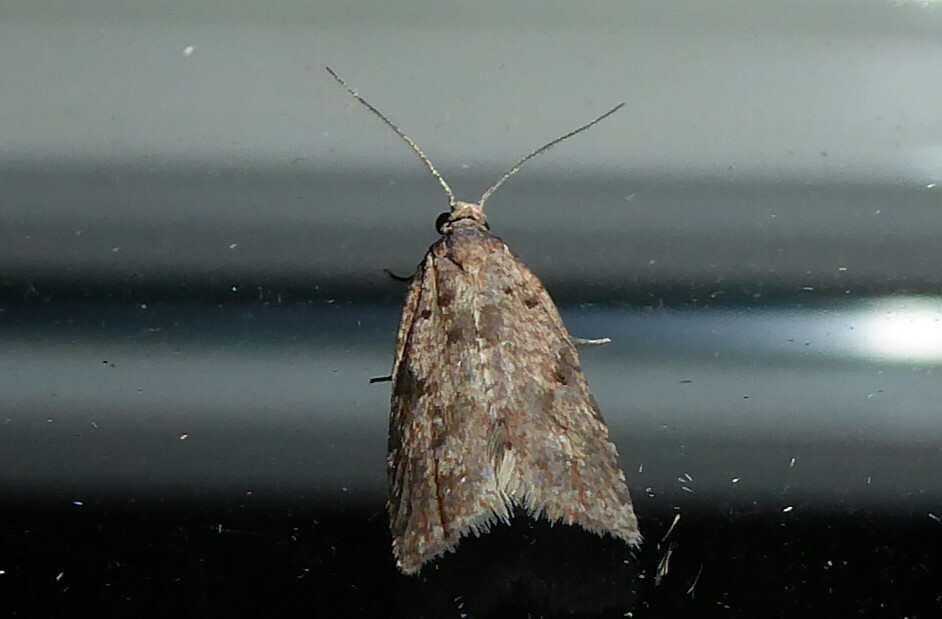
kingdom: Animalia
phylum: Arthropoda
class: Insecta
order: Lepidoptera
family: Tortricidae
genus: Capua
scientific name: Capua semiferana
